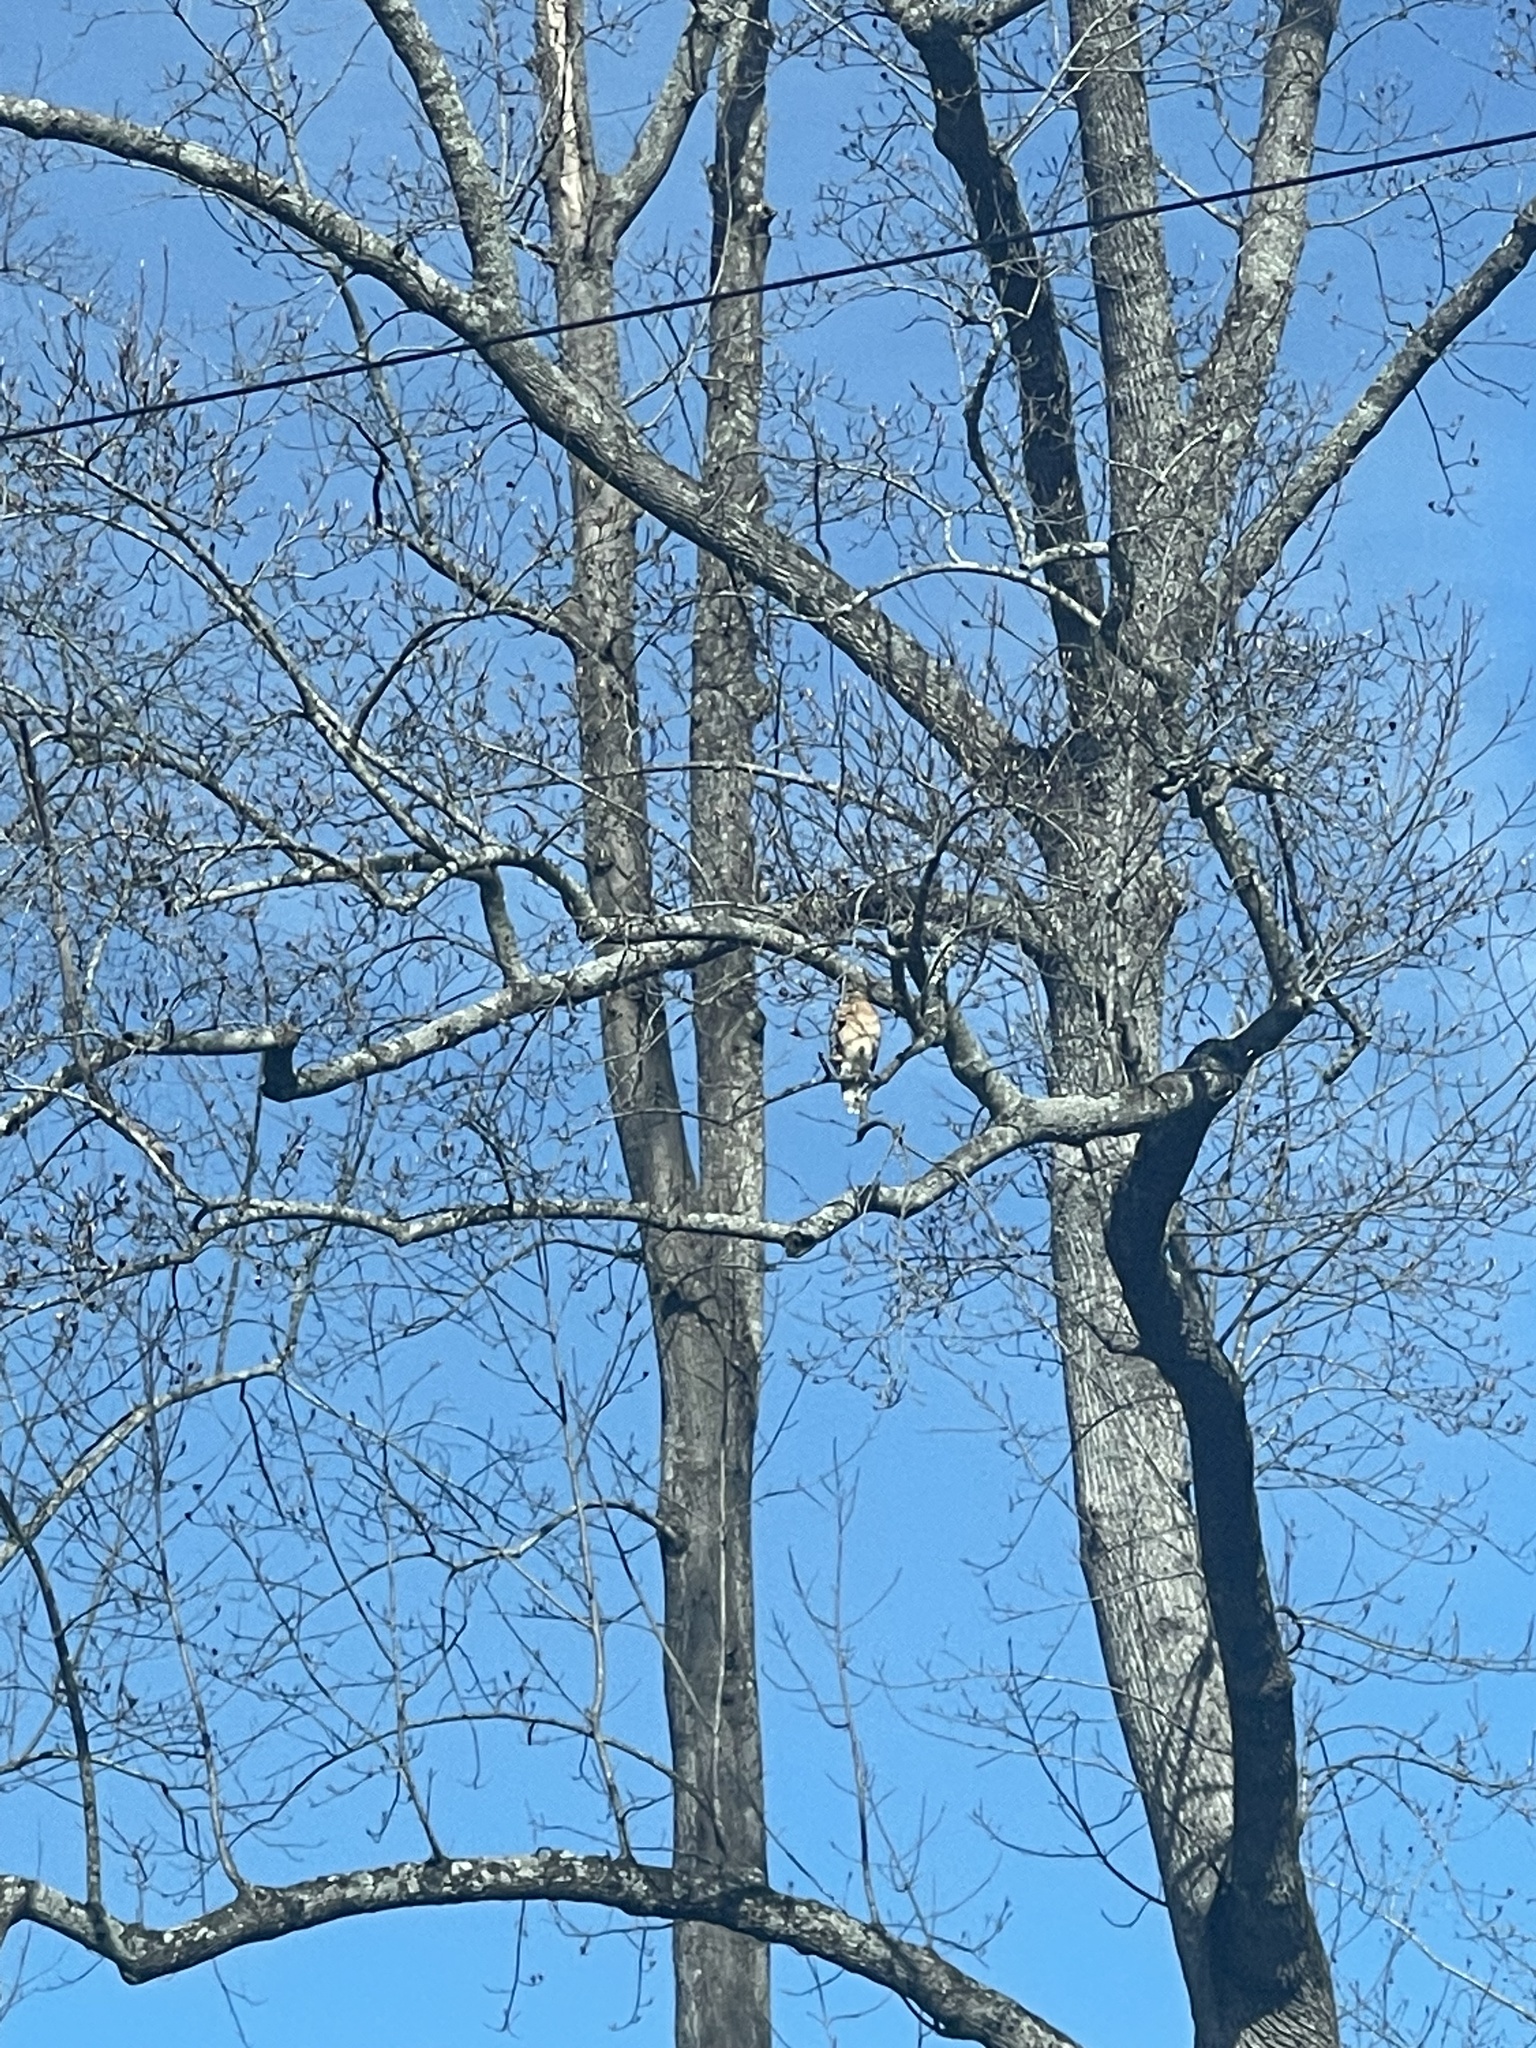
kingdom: Animalia
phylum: Chordata
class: Aves
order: Accipitriformes
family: Accipitridae
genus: Buteo
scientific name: Buteo lineatus
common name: Red-shouldered hawk
